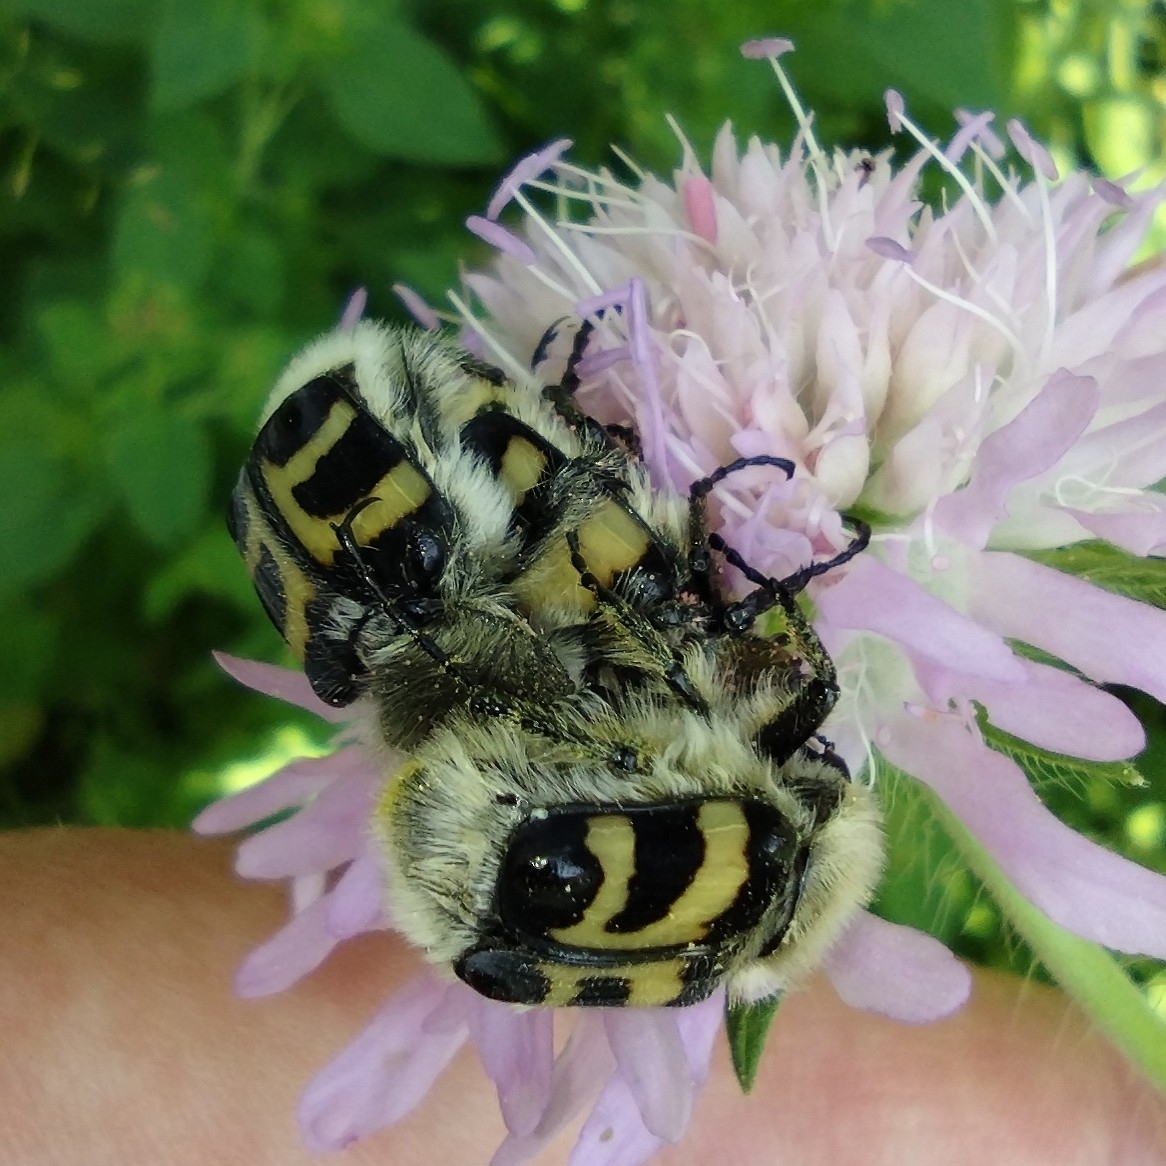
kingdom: Animalia
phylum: Arthropoda
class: Insecta
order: Coleoptera
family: Scarabaeidae
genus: Trichius
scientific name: Trichius fasciatus
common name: Bee beetle
